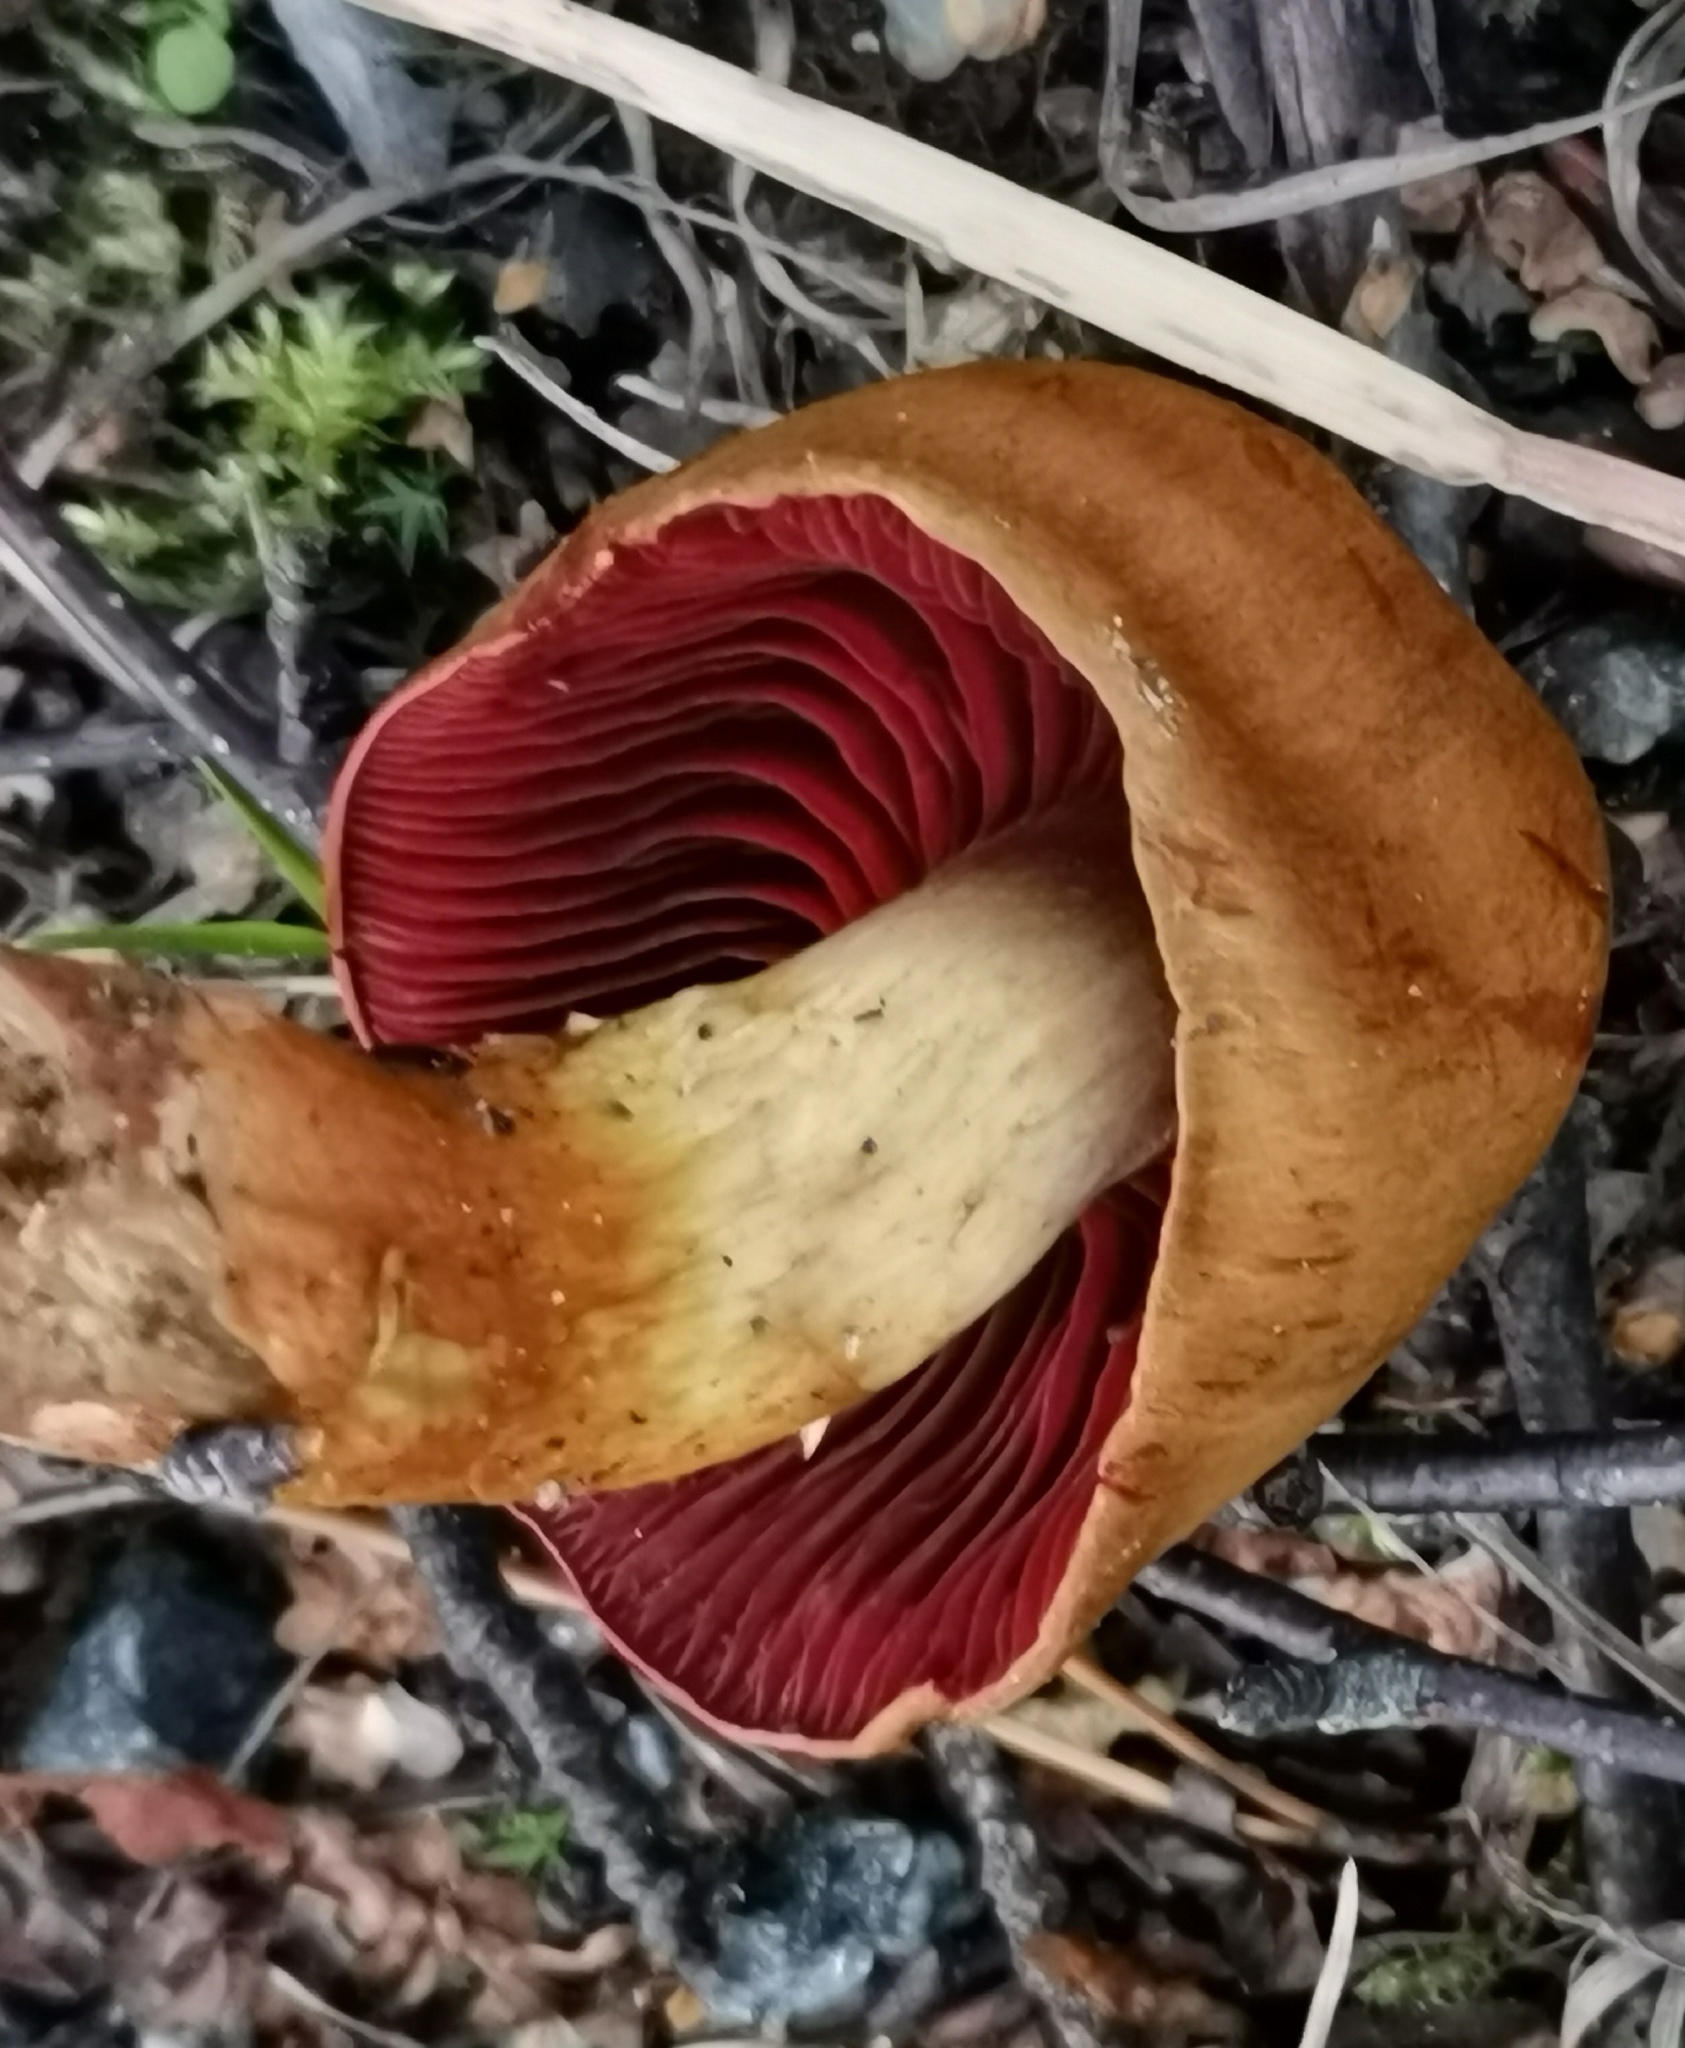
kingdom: Fungi
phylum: Basidiomycota
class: Agaricomycetes
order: Agaricales
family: Cortinariaceae
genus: Cortinarius
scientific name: Cortinarius semisanguineus
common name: Surprise webcap
